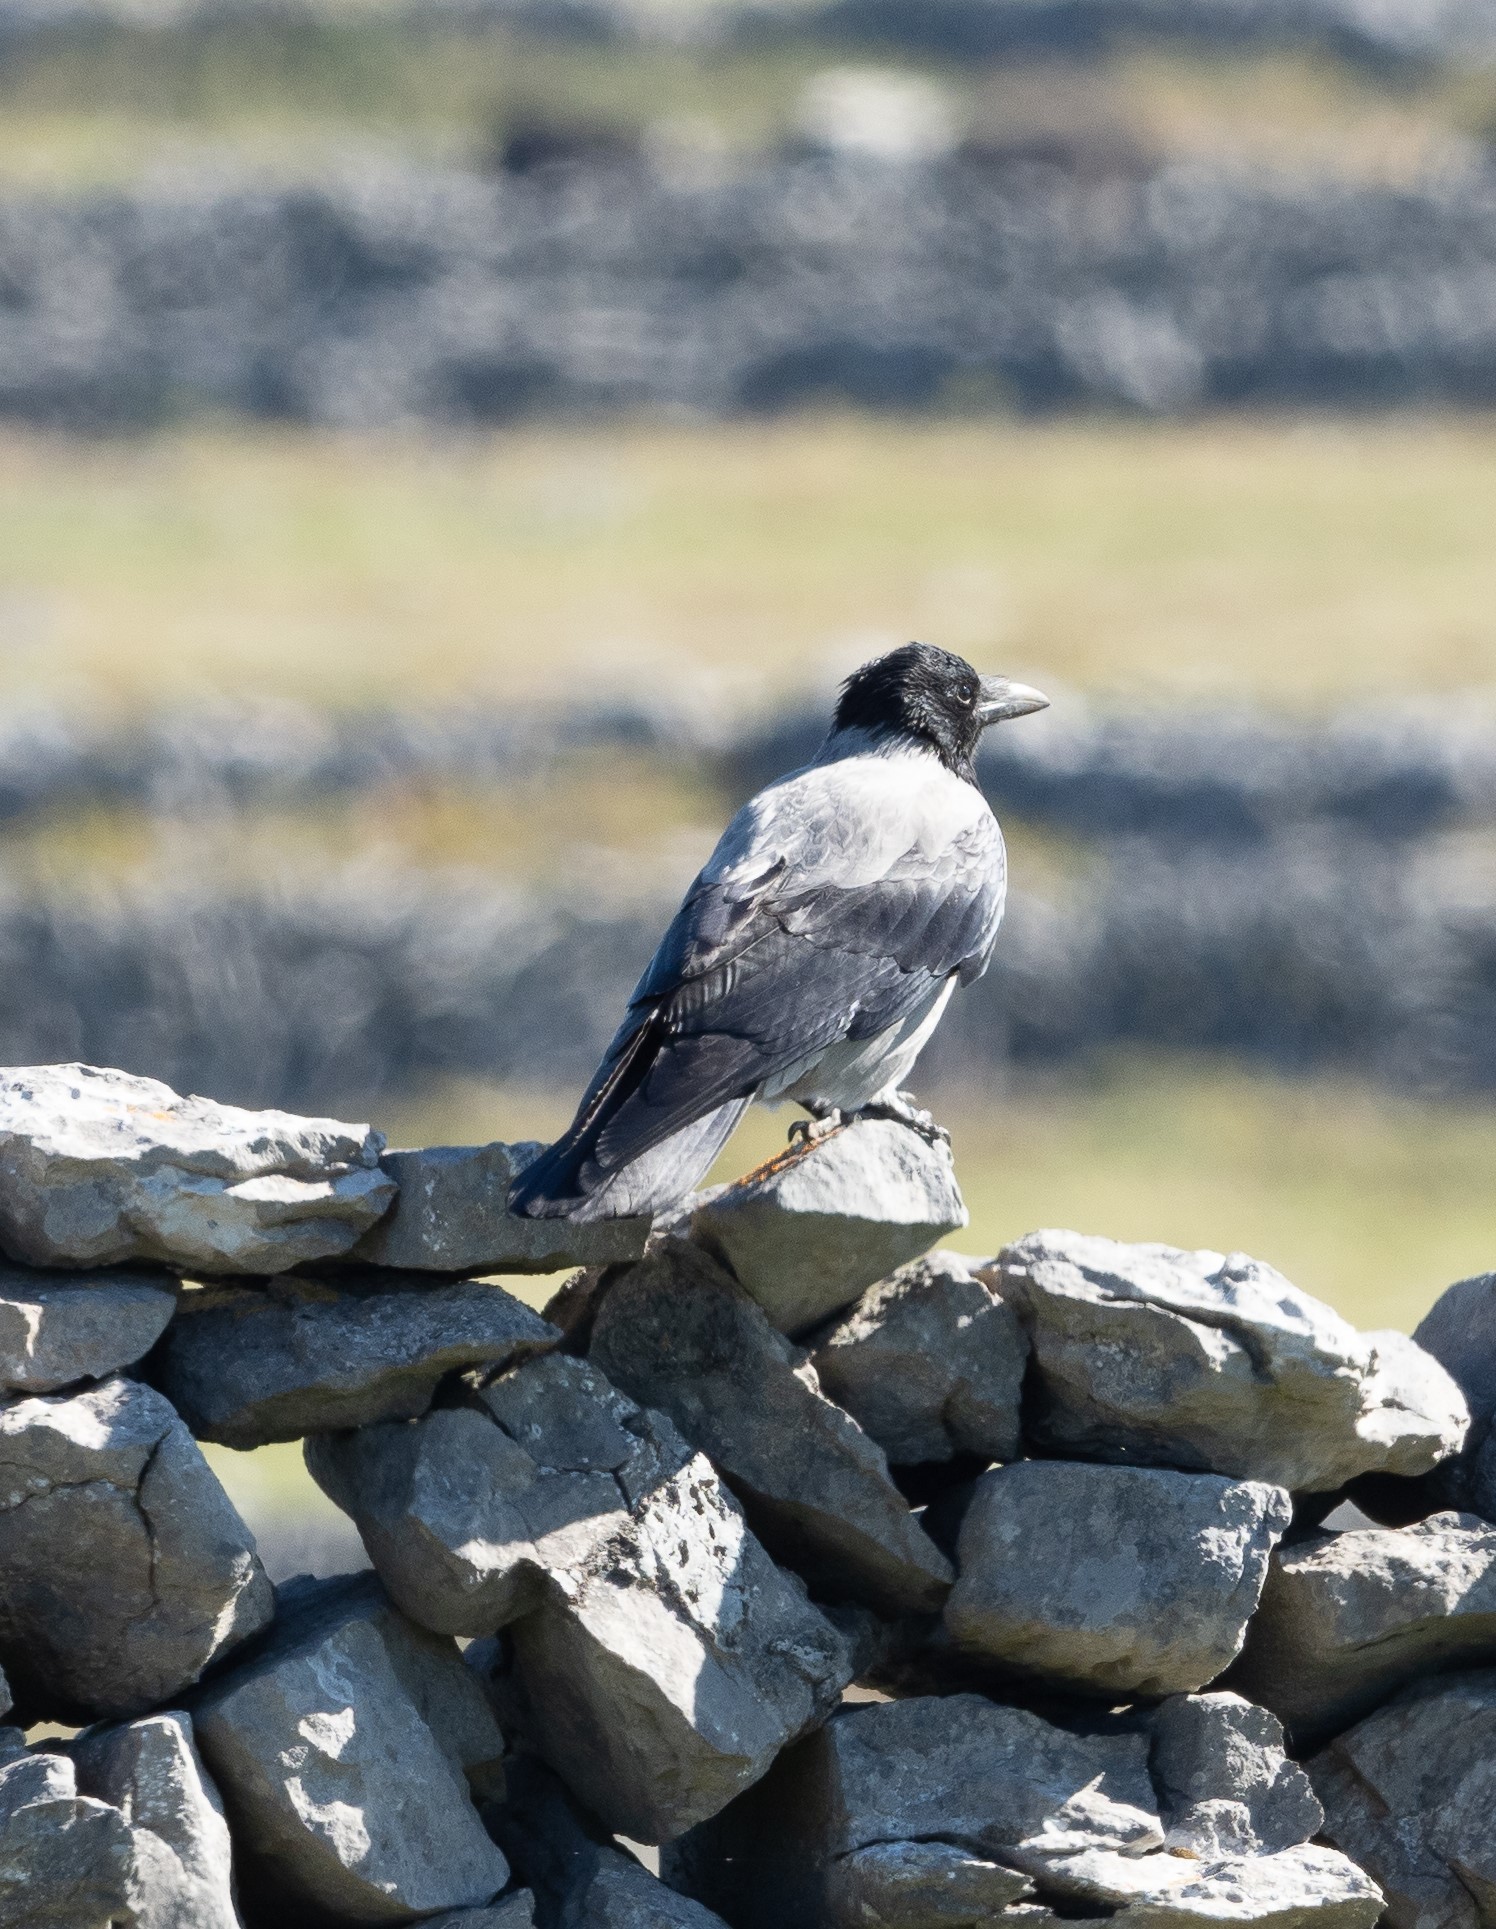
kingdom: Animalia
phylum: Chordata
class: Aves
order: Passeriformes
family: Corvidae
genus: Corvus
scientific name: Corvus cornix
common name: Hooded crow
